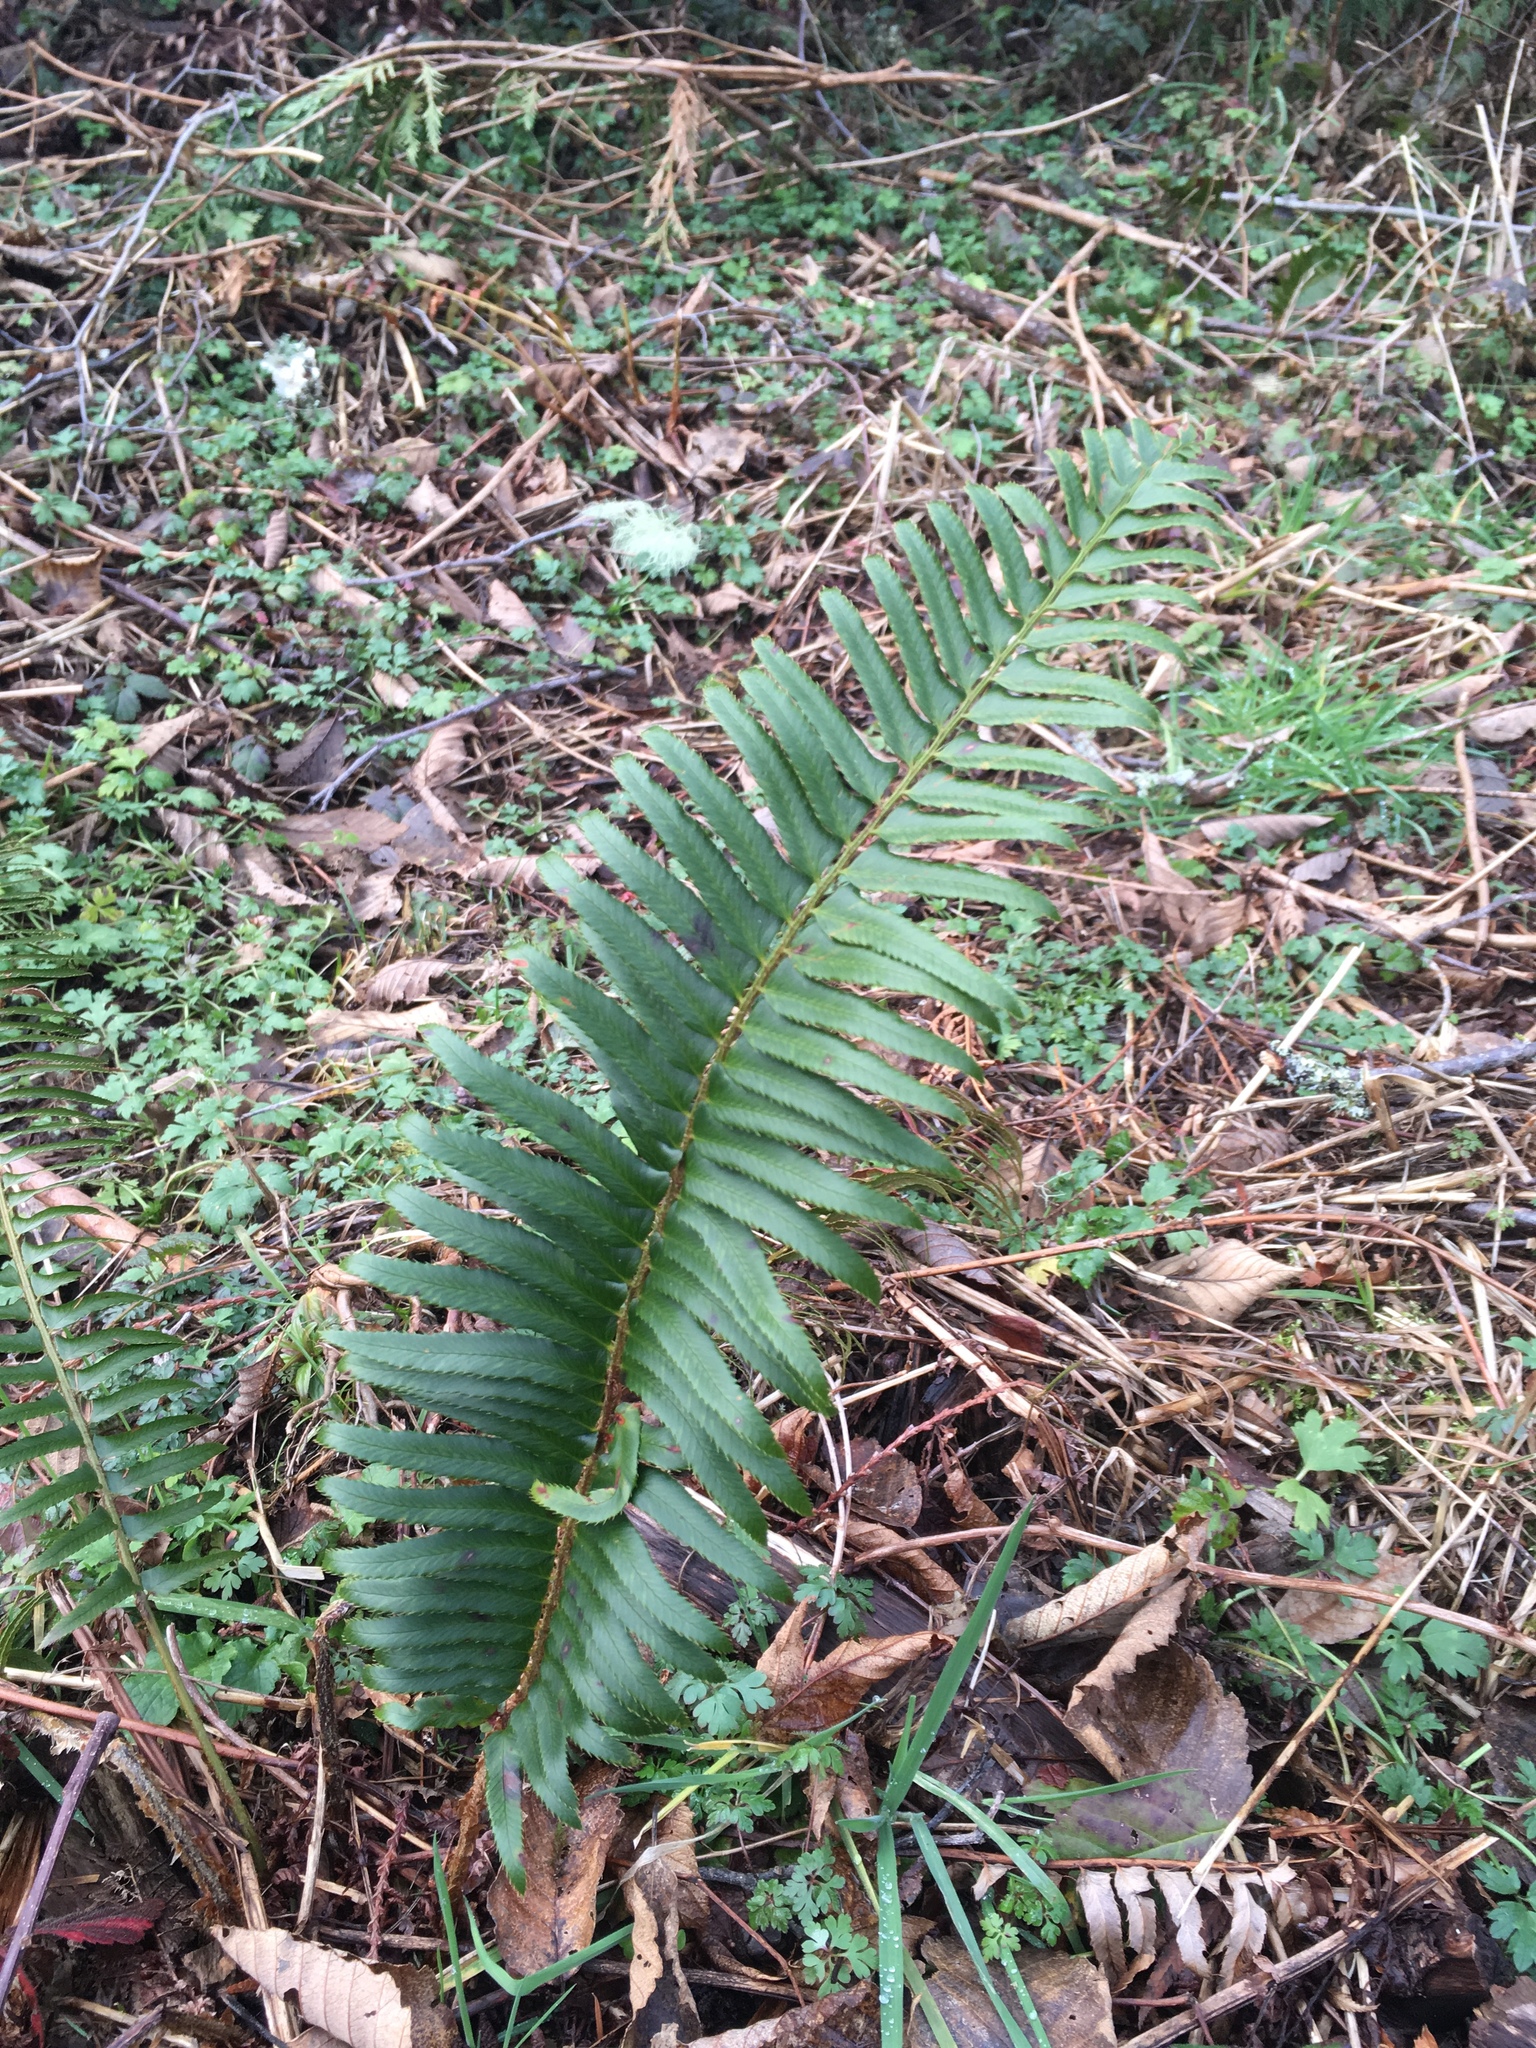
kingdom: Plantae
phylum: Tracheophyta
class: Polypodiopsida
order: Polypodiales
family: Dryopteridaceae
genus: Polystichum
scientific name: Polystichum munitum
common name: Western sword-fern
